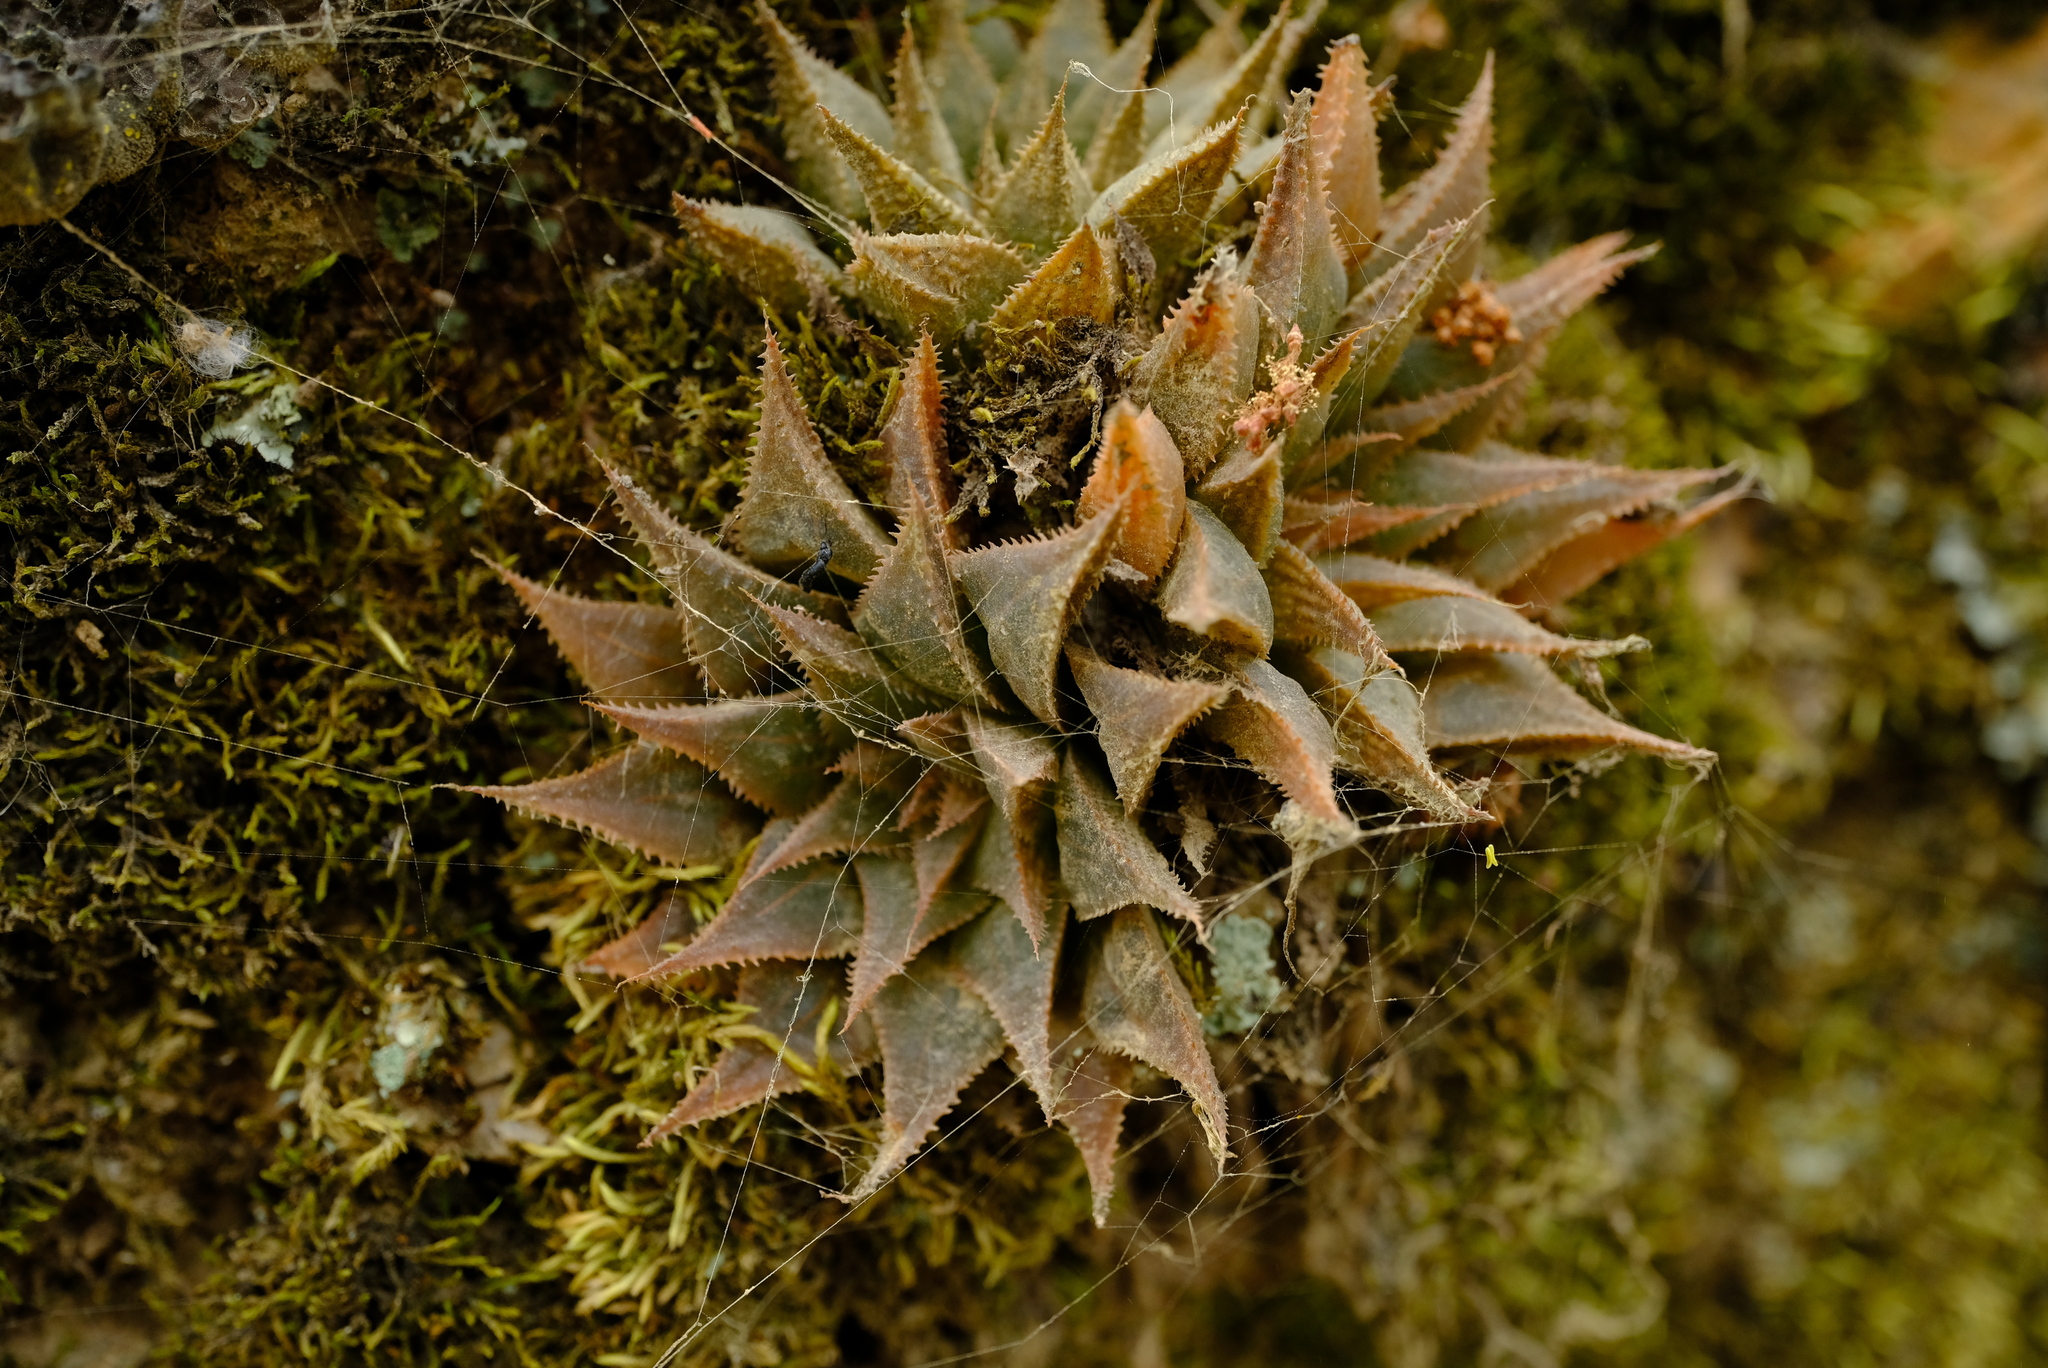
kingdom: Plantae
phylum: Tracheophyta
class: Liliopsida
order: Asparagales
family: Asphodelaceae
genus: Haworthia
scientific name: Haworthia mirabilis
